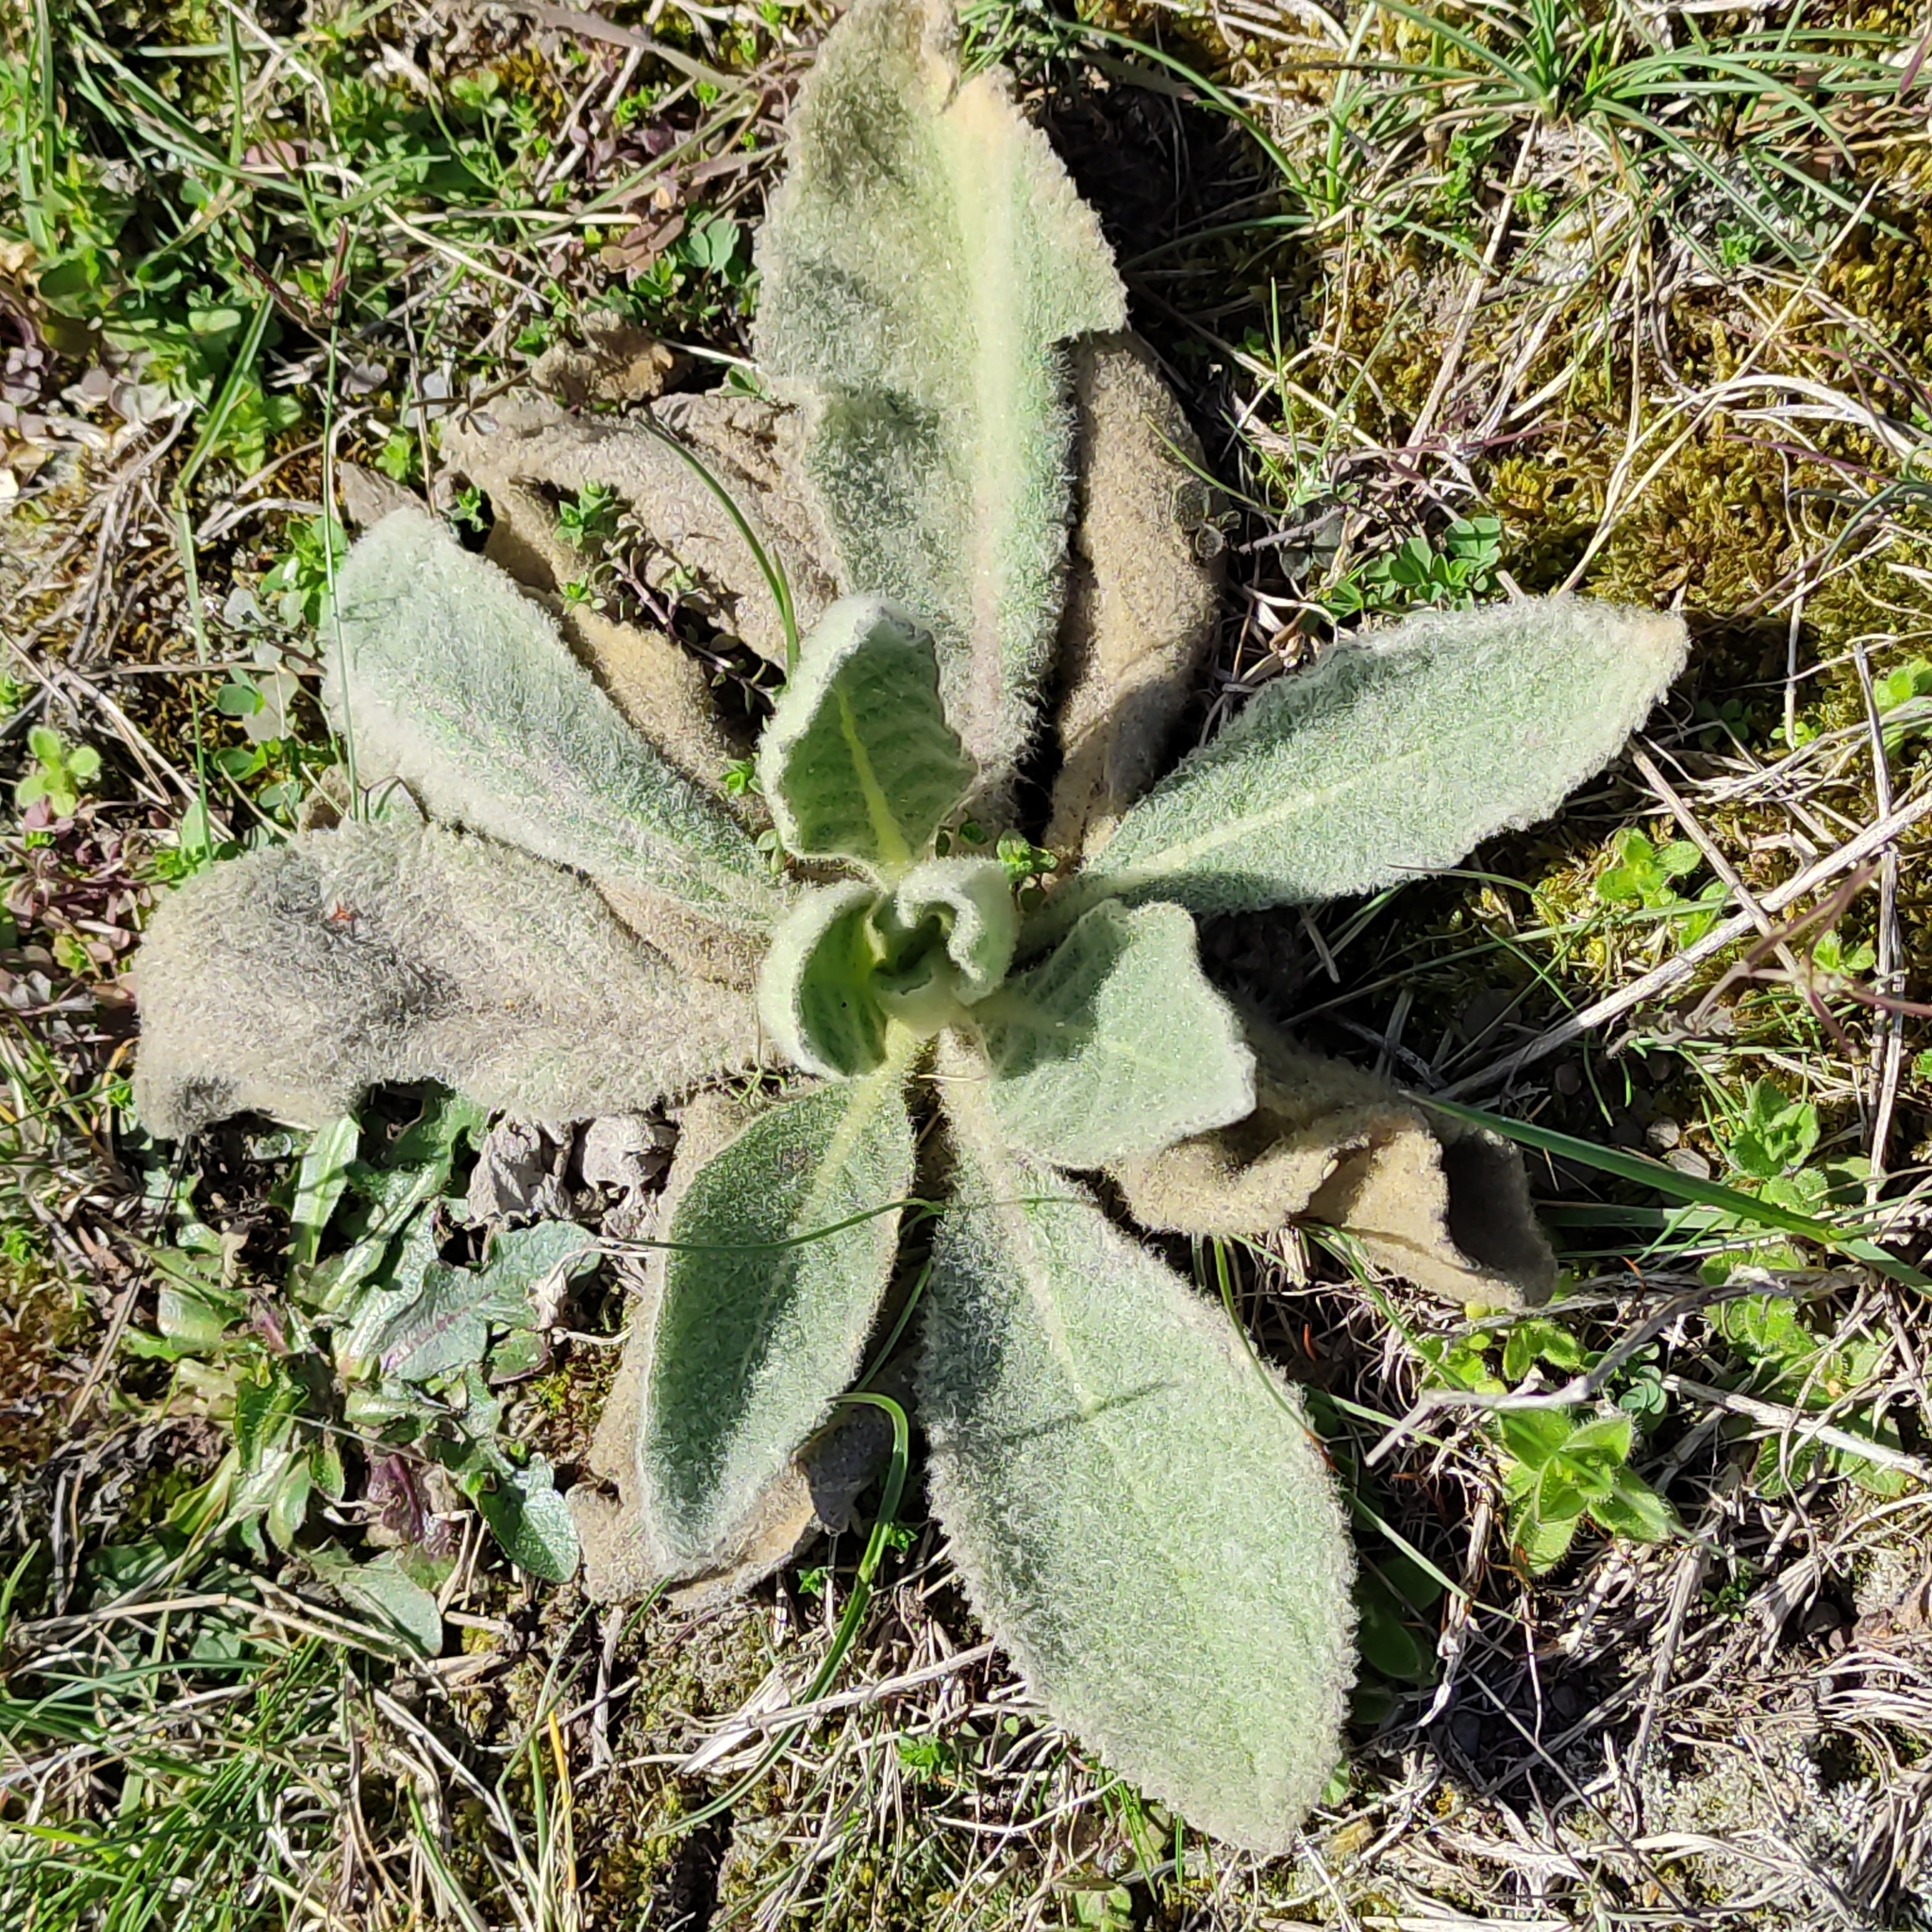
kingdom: Plantae
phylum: Tracheophyta
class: Magnoliopsida
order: Lamiales
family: Scrophulariaceae
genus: Verbascum
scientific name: Verbascum thapsus
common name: Common mullein
